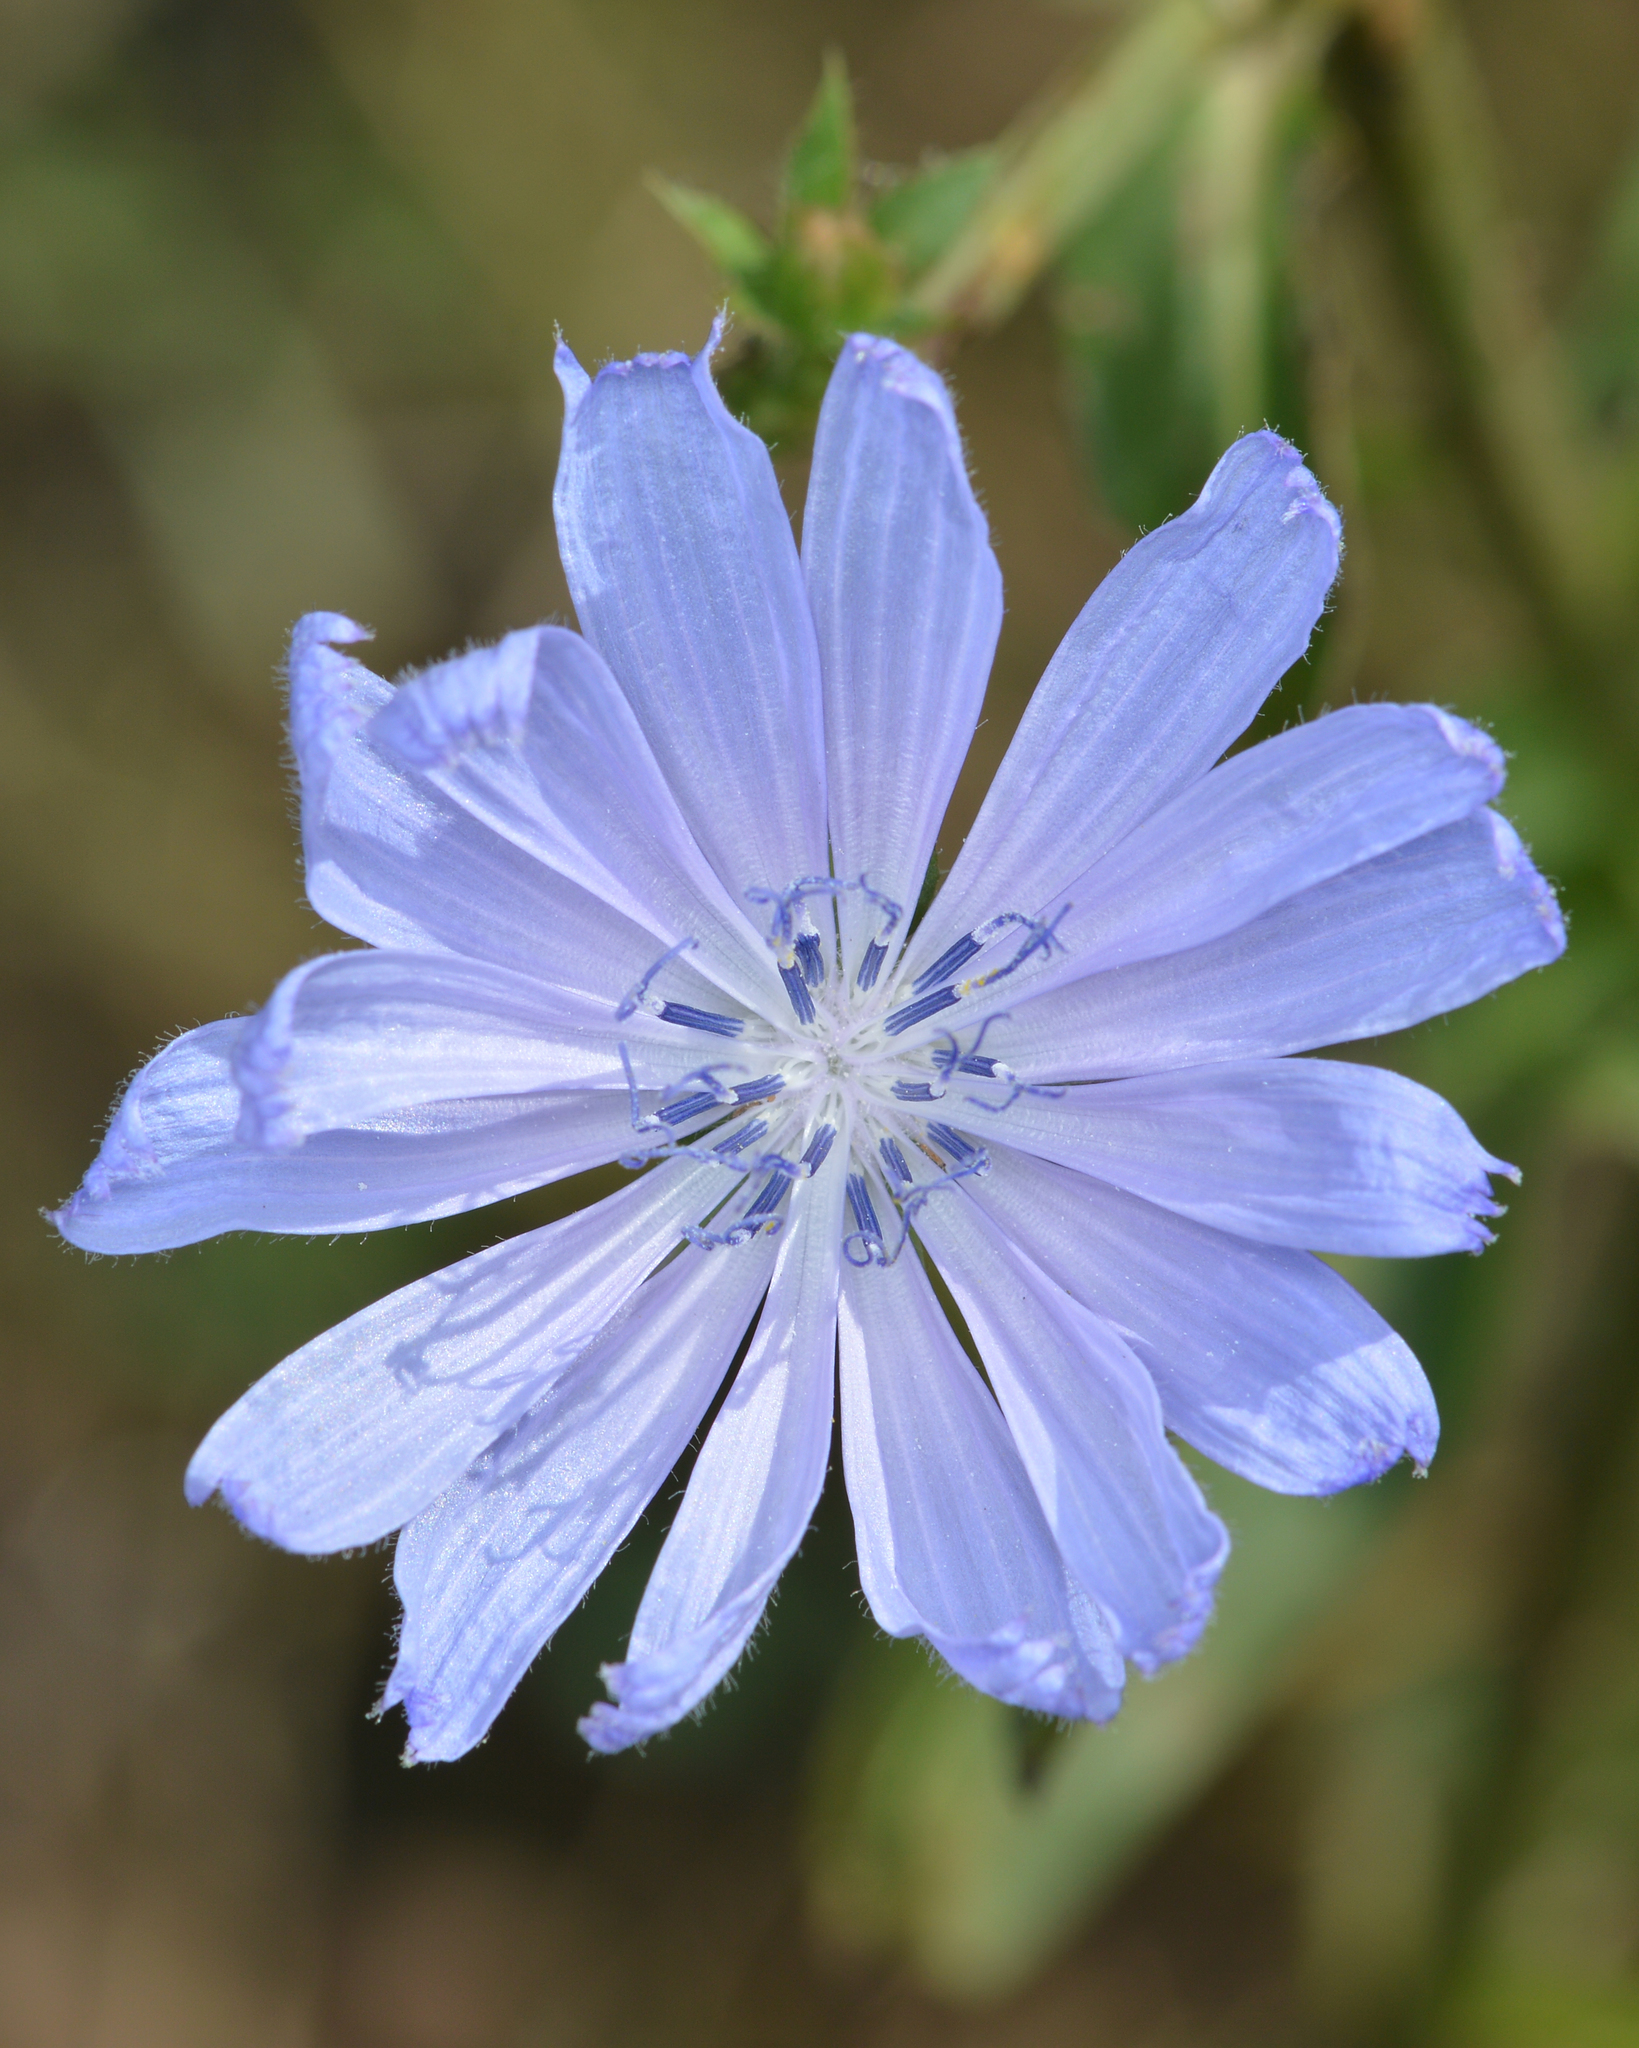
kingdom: Plantae
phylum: Tracheophyta
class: Magnoliopsida
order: Asterales
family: Asteraceae
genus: Cichorium
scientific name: Cichorium intybus
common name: Chicory
